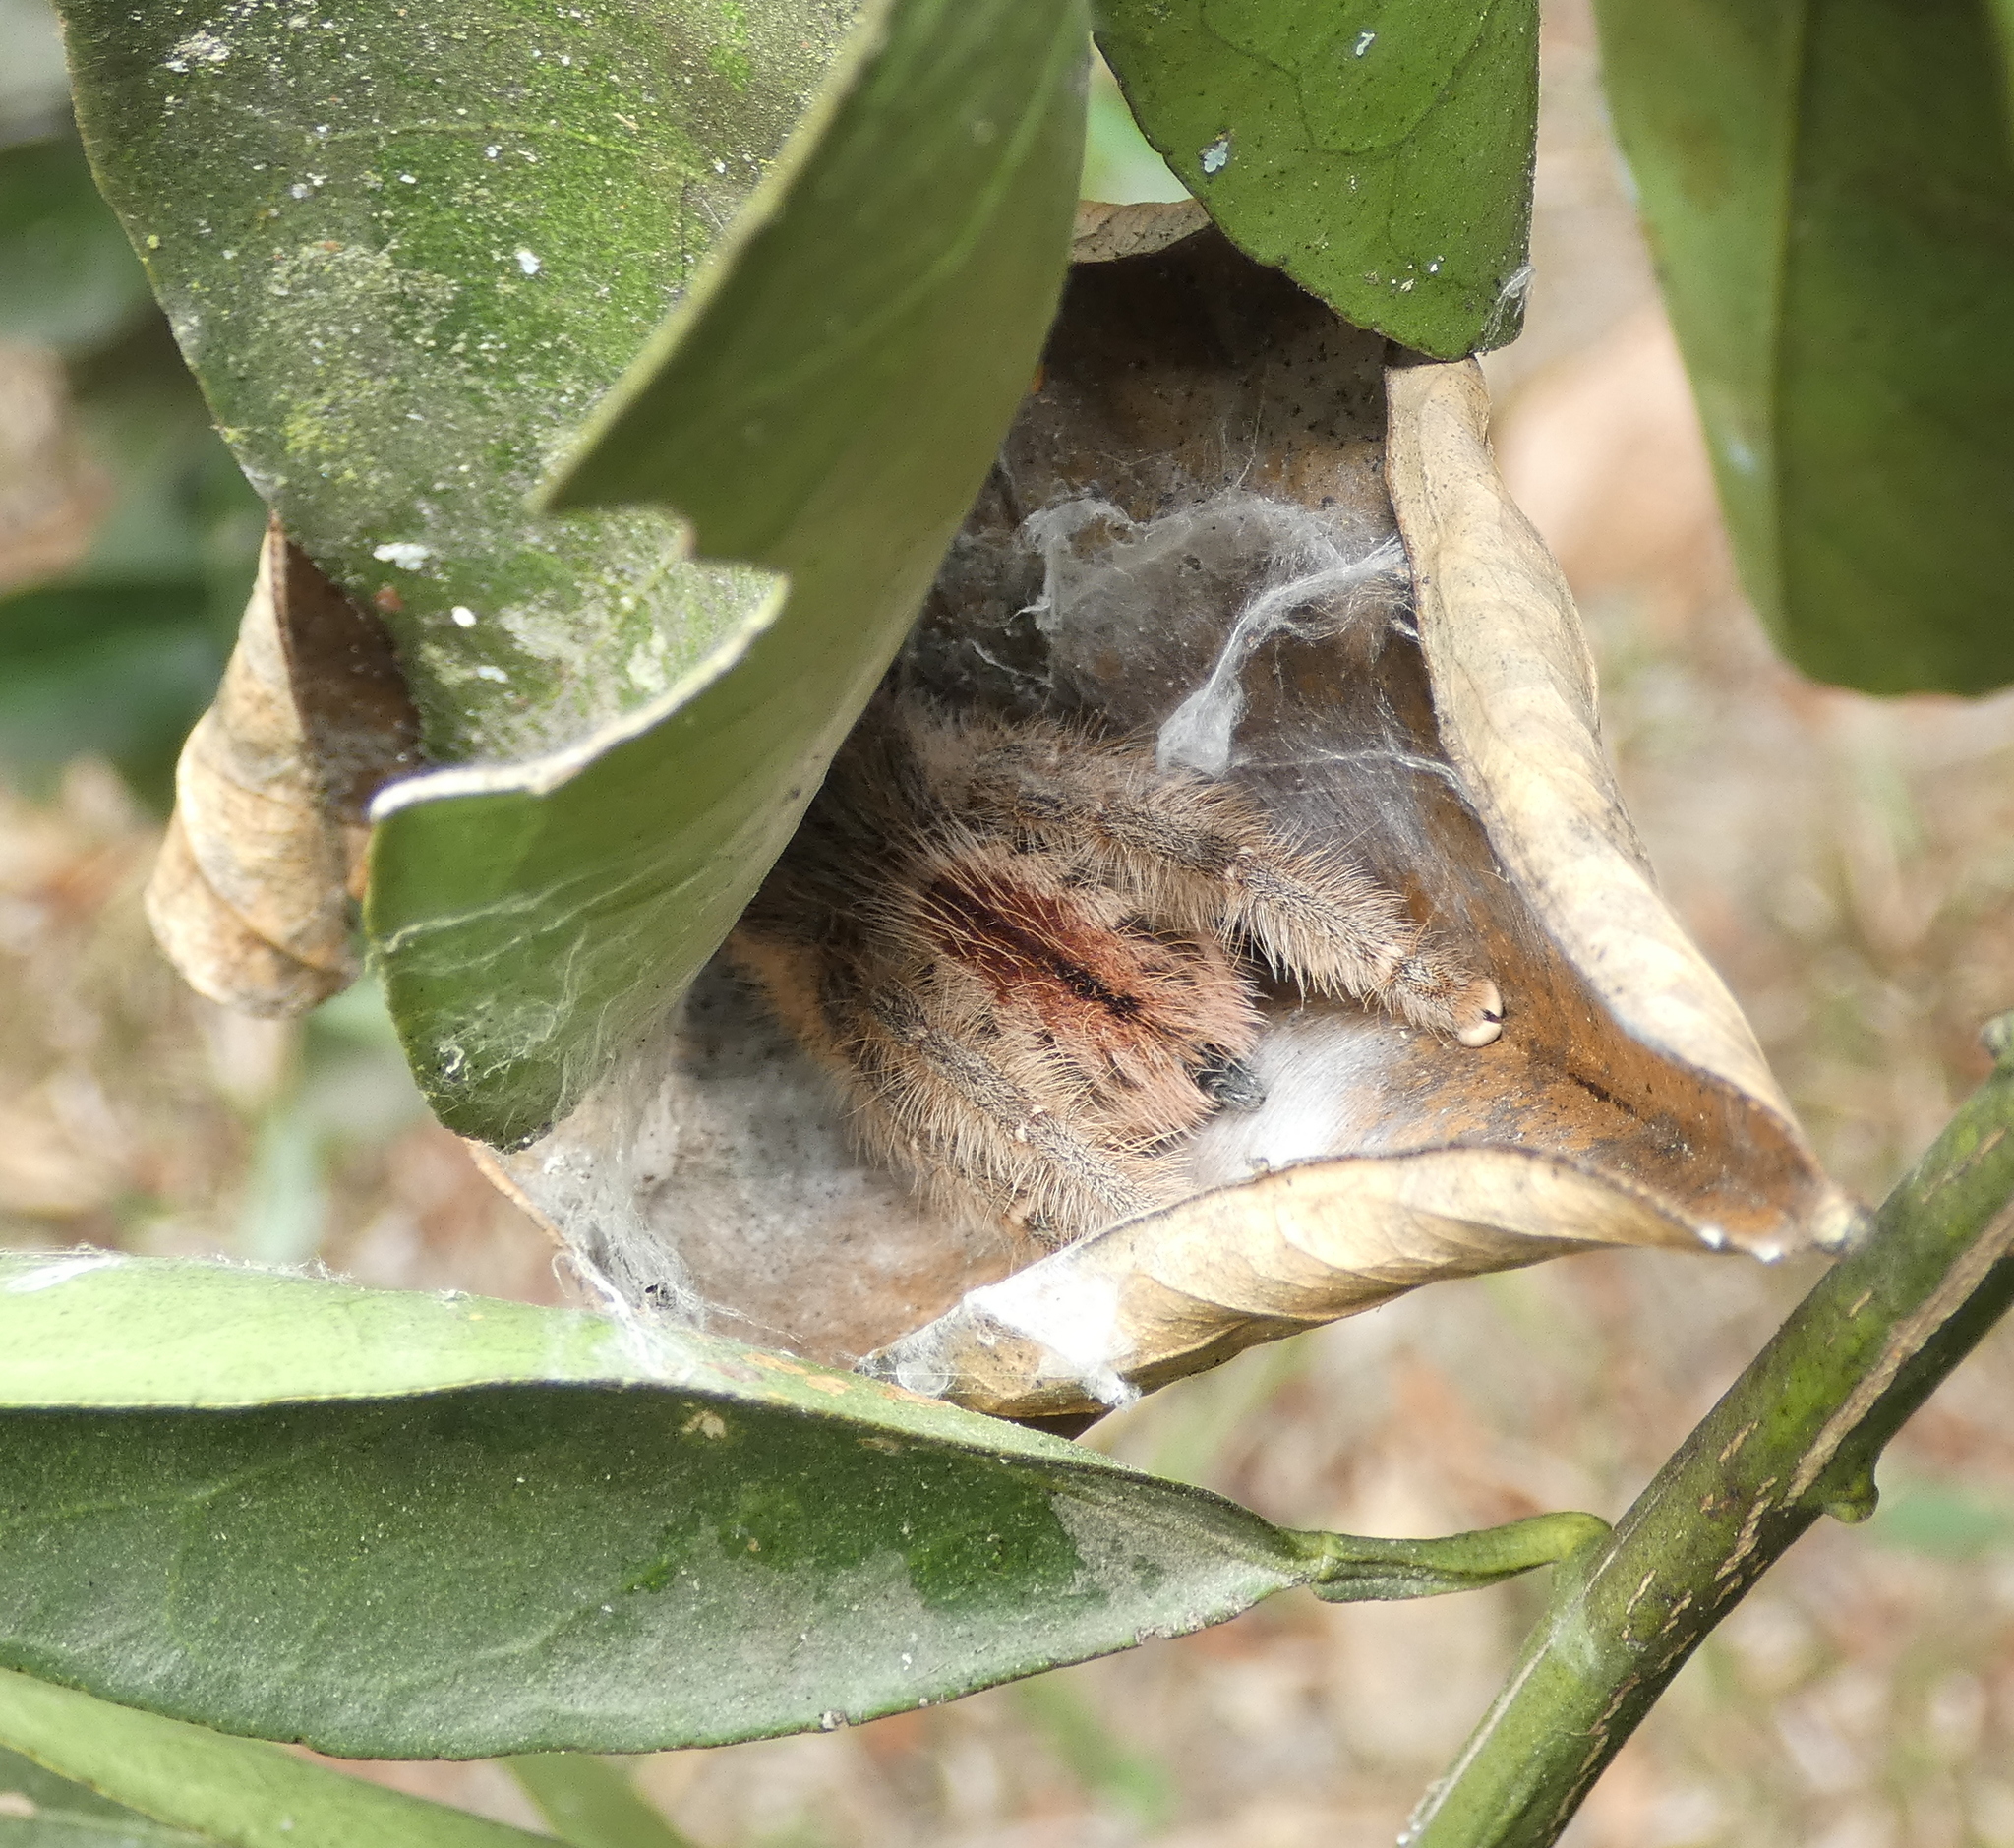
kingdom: Animalia
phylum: Arthropoda
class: Arachnida
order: Araneae
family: Theraphosidae
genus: Iridopelma
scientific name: Iridopelma hirsutum
